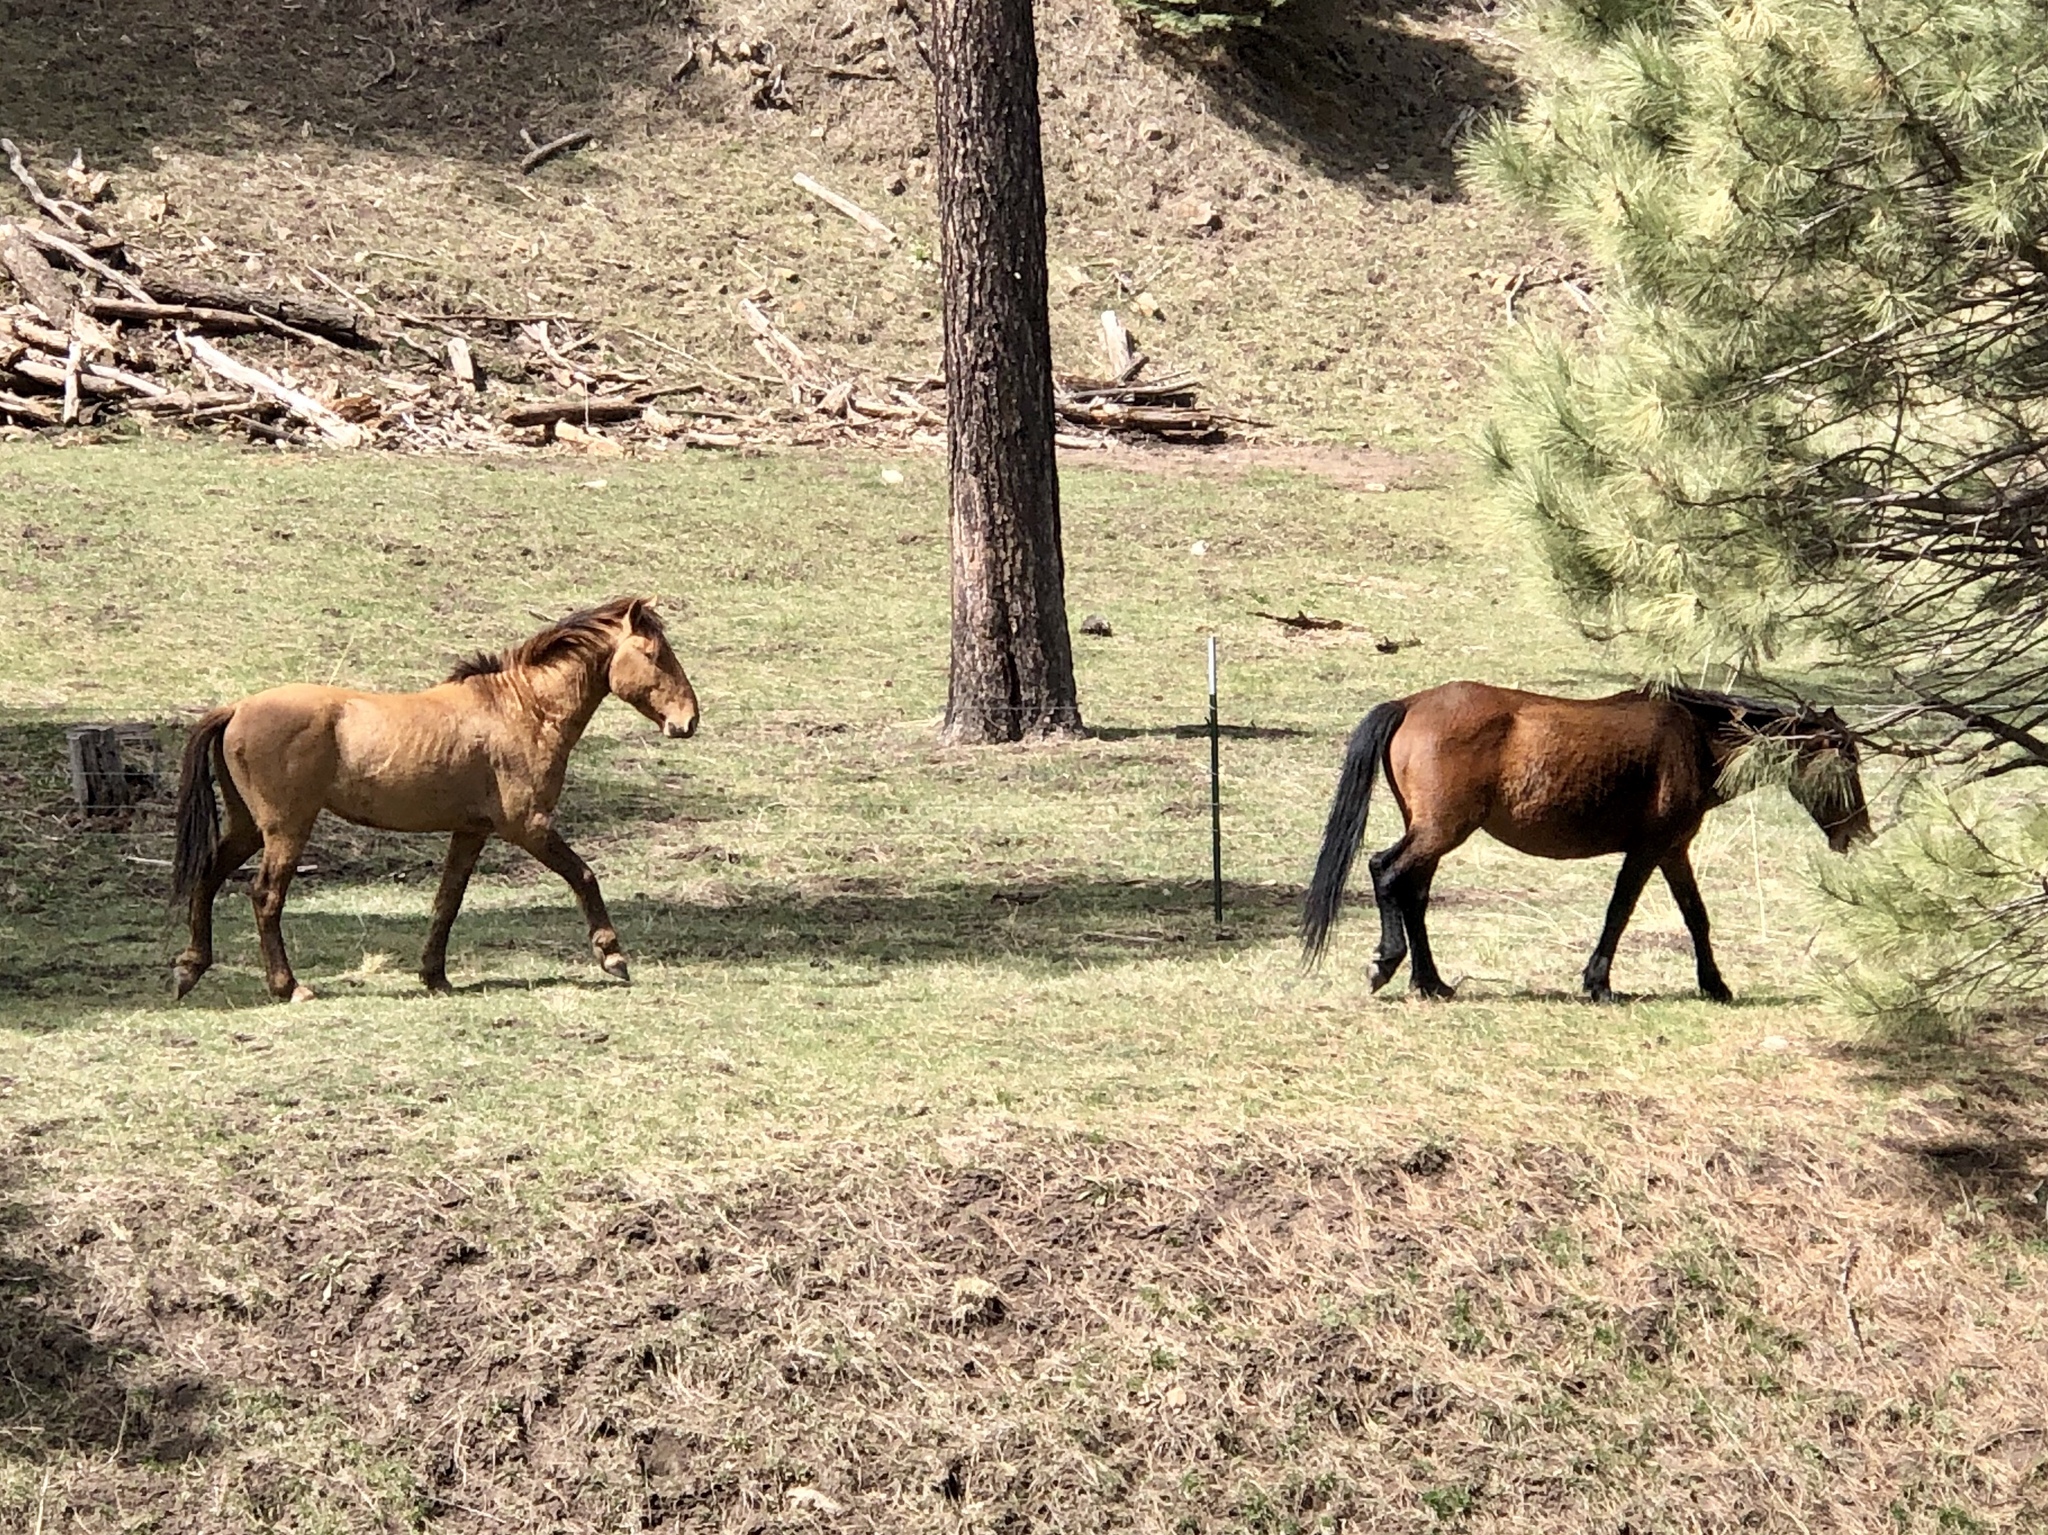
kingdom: Animalia
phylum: Chordata
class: Mammalia
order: Perissodactyla
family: Equidae
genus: Equus
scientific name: Equus caballus
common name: Horse
